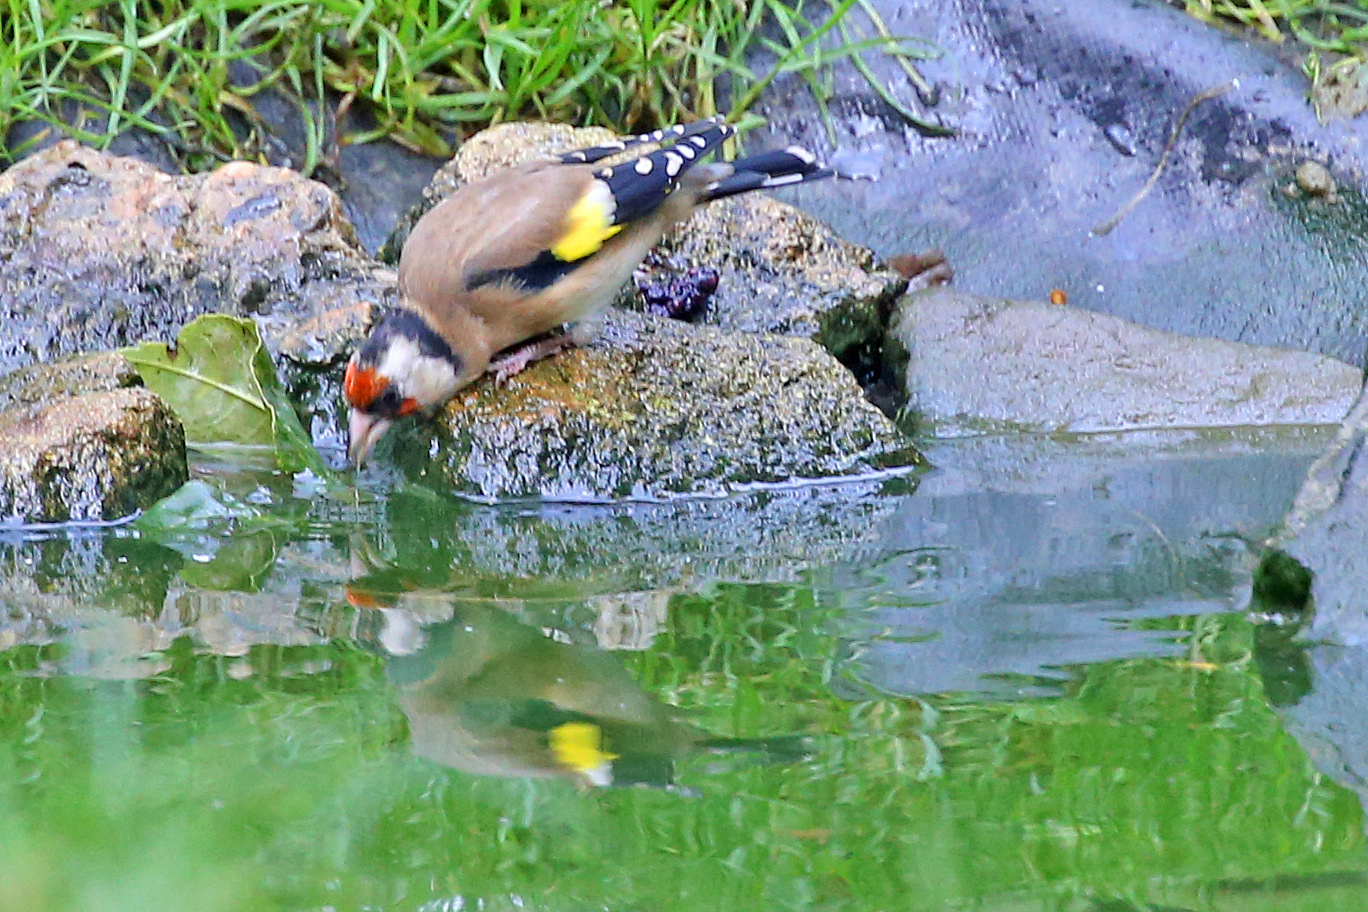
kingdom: Animalia
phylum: Chordata
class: Aves
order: Passeriformes
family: Fringillidae
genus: Carduelis
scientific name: Carduelis carduelis
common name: European goldfinch
